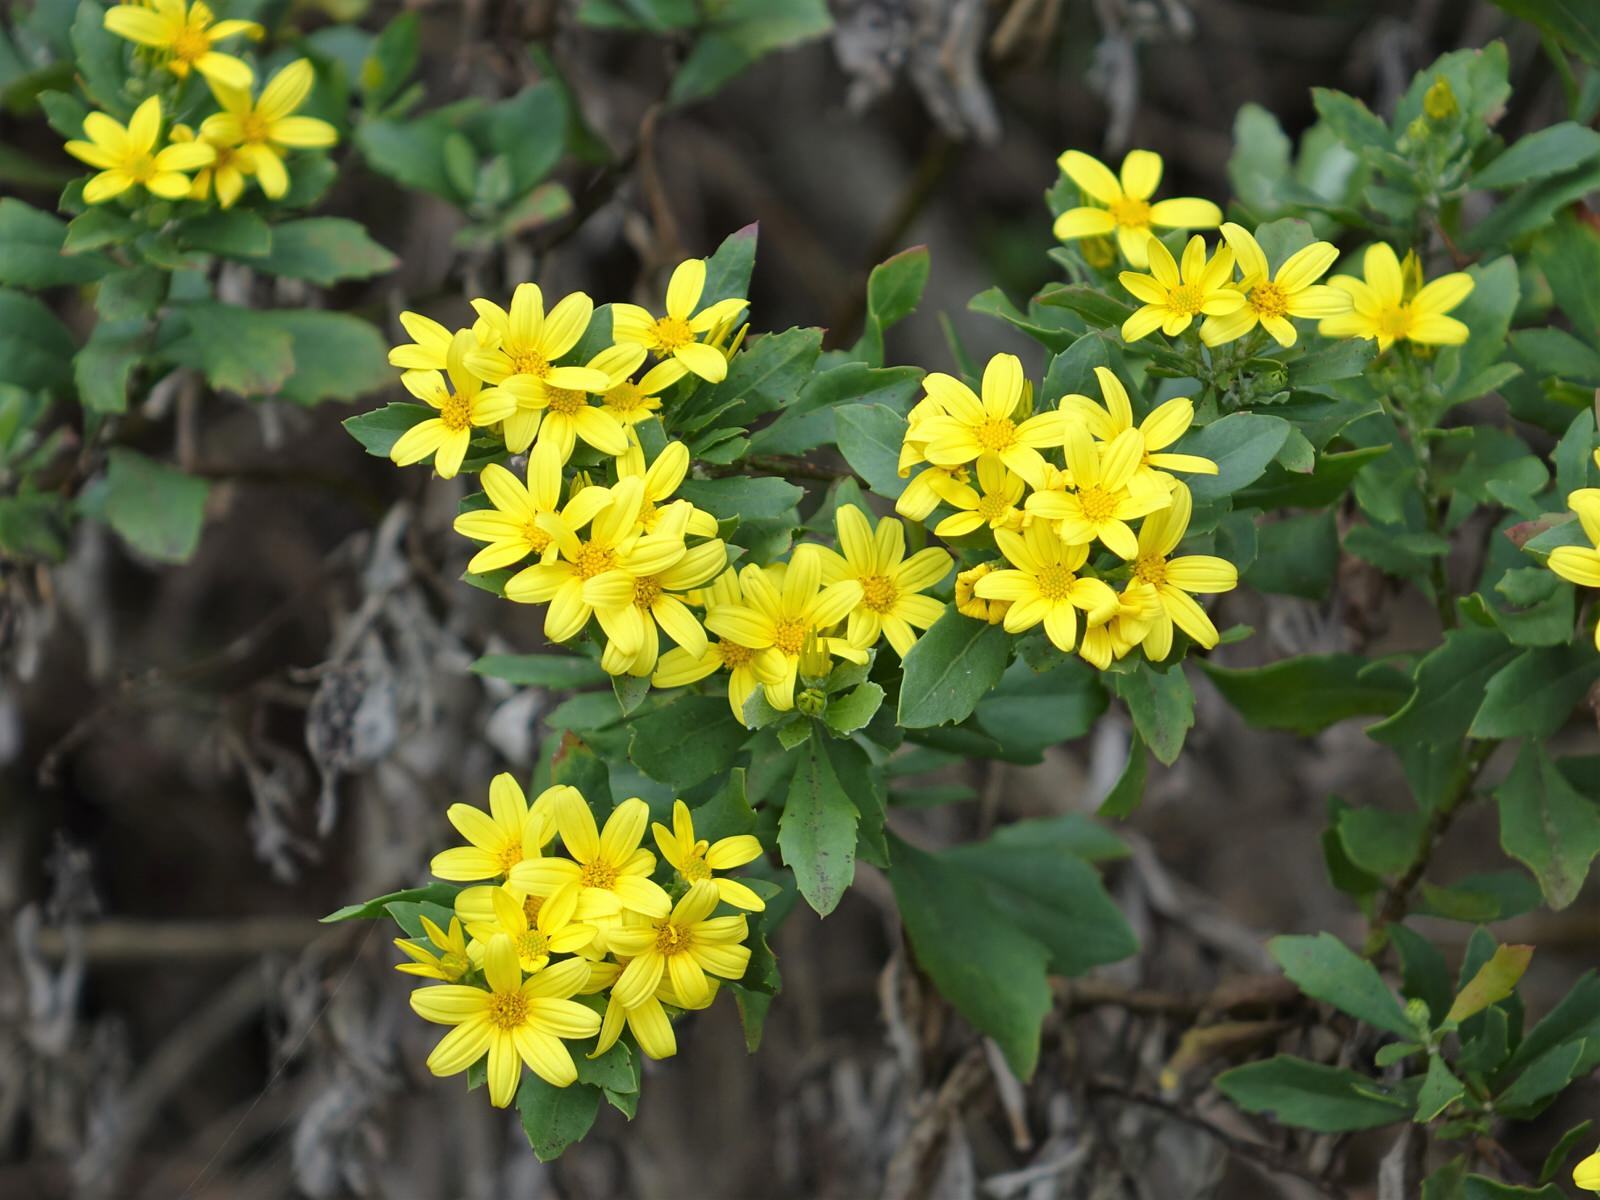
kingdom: Plantae
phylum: Tracheophyta
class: Magnoliopsida
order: Asterales
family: Asteraceae
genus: Osteospermum
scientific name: Osteospermum moniliferum
